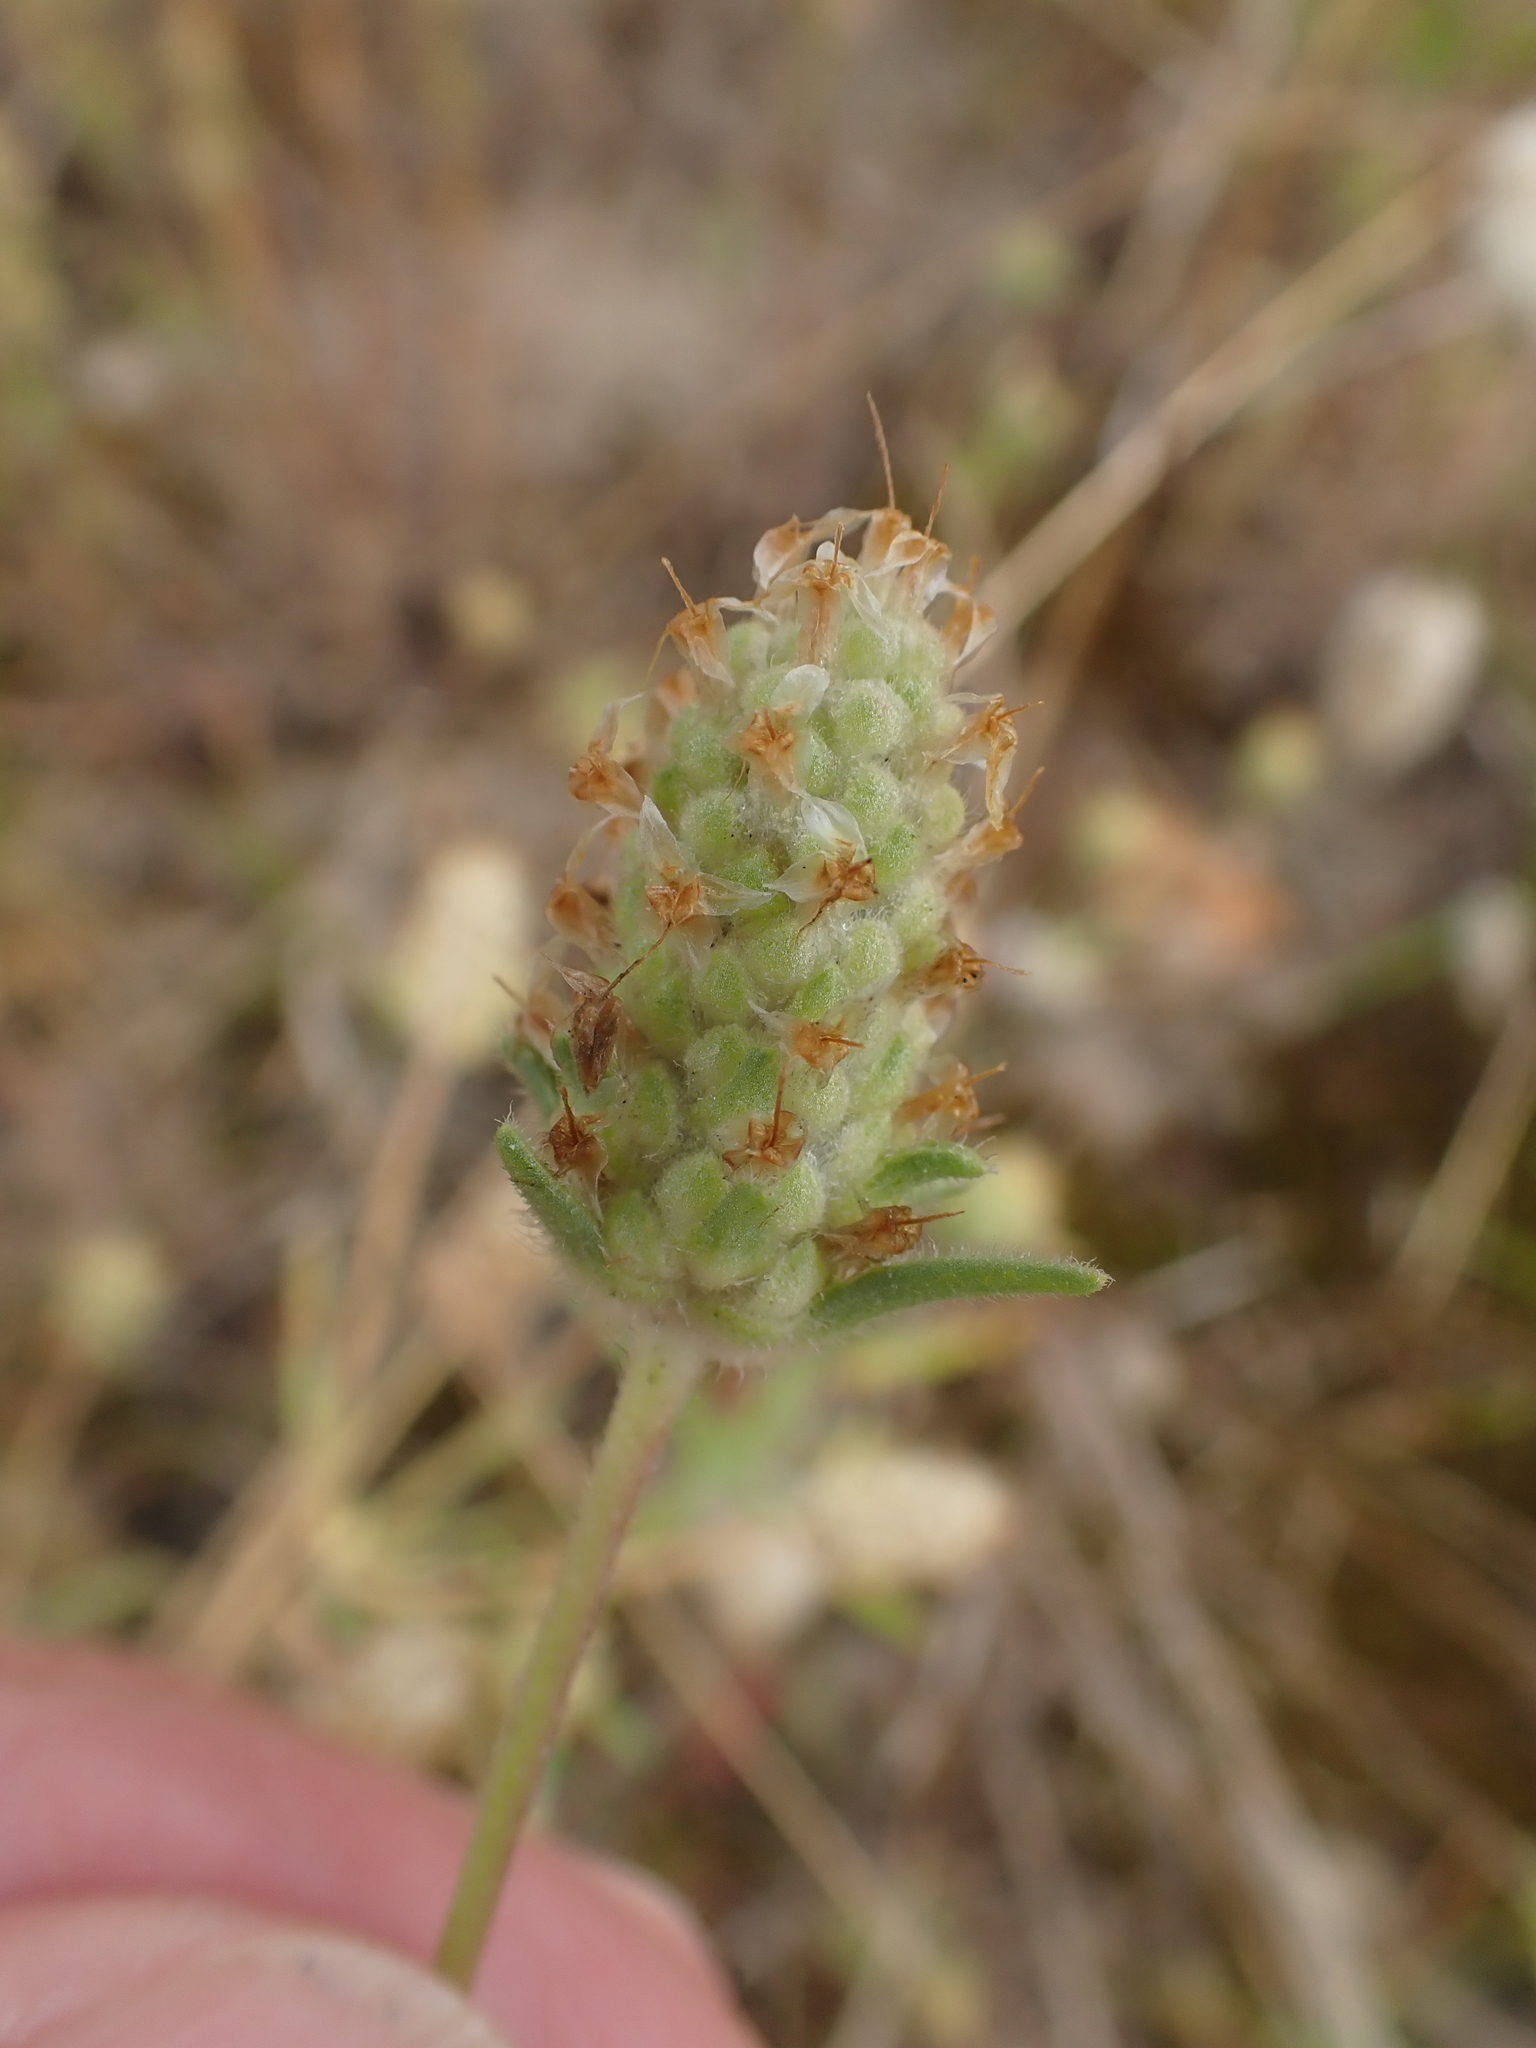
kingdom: Plantae
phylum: Tracheophyta
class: Magnoliopsida
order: Lamiales
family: Plantaginaceae
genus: Plantago
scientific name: Plantago arenaria
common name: Branched plantain
